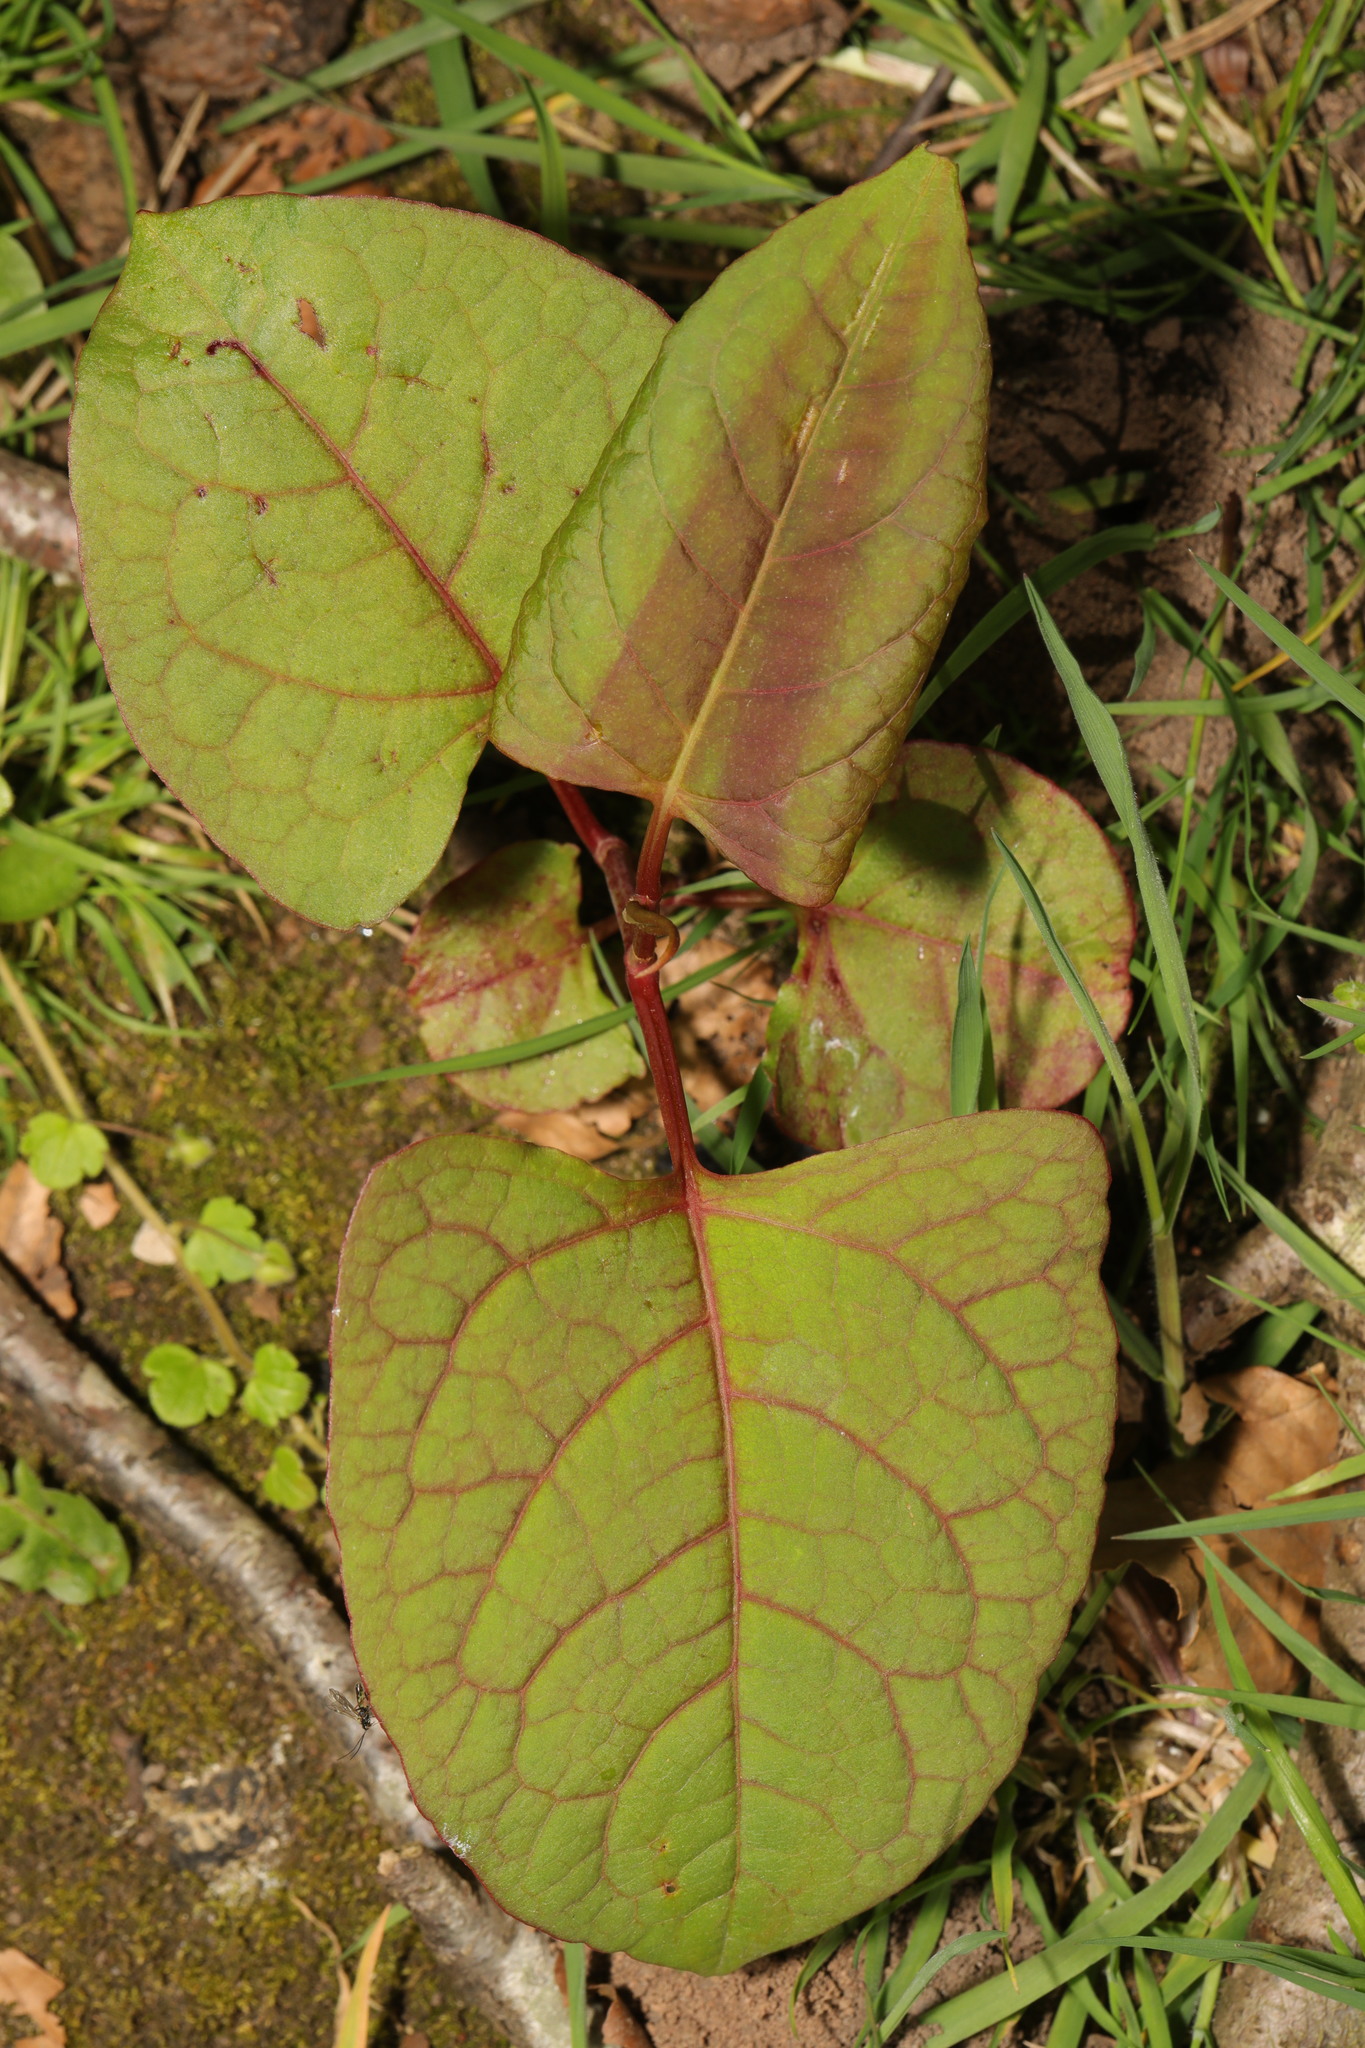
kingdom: Plantae
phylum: Tracheophyta
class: Magnoliopsida
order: Caryophyllales
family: Polygonaceae
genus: Reynoutria
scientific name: Reynoutria bohemica
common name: Bohemian knotweed
